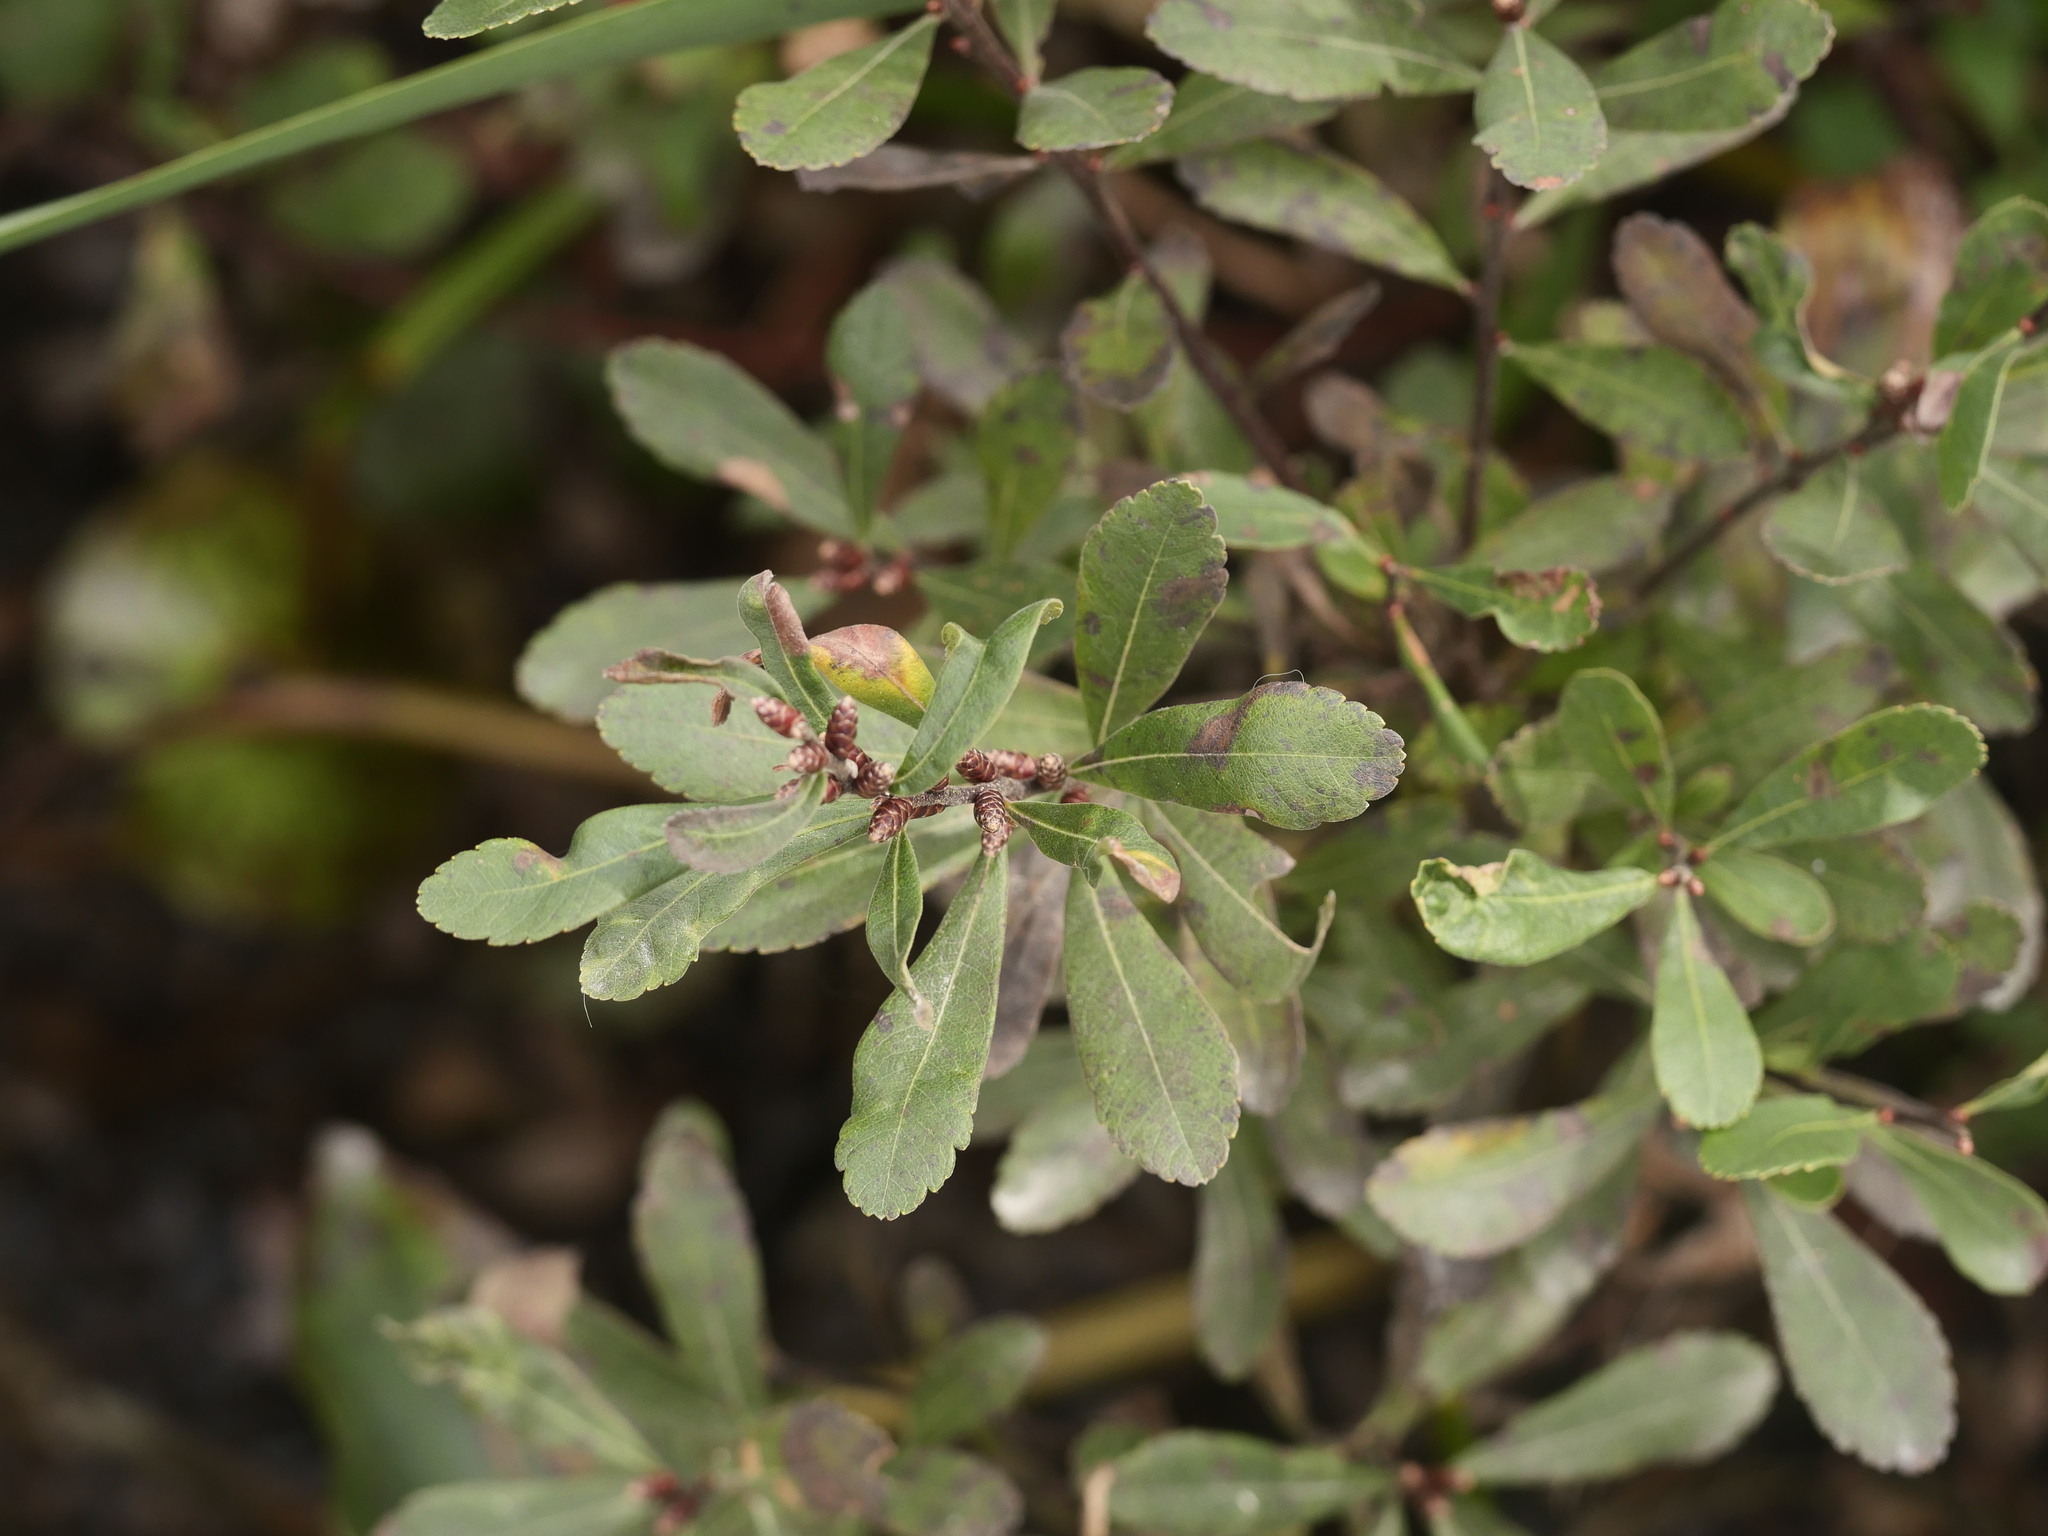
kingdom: Plantae
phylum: Tracheophyta
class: Magnoliopsida
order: Fagales
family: Myricaceae
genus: Myrica
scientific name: Myrica gale
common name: Sweet gale
